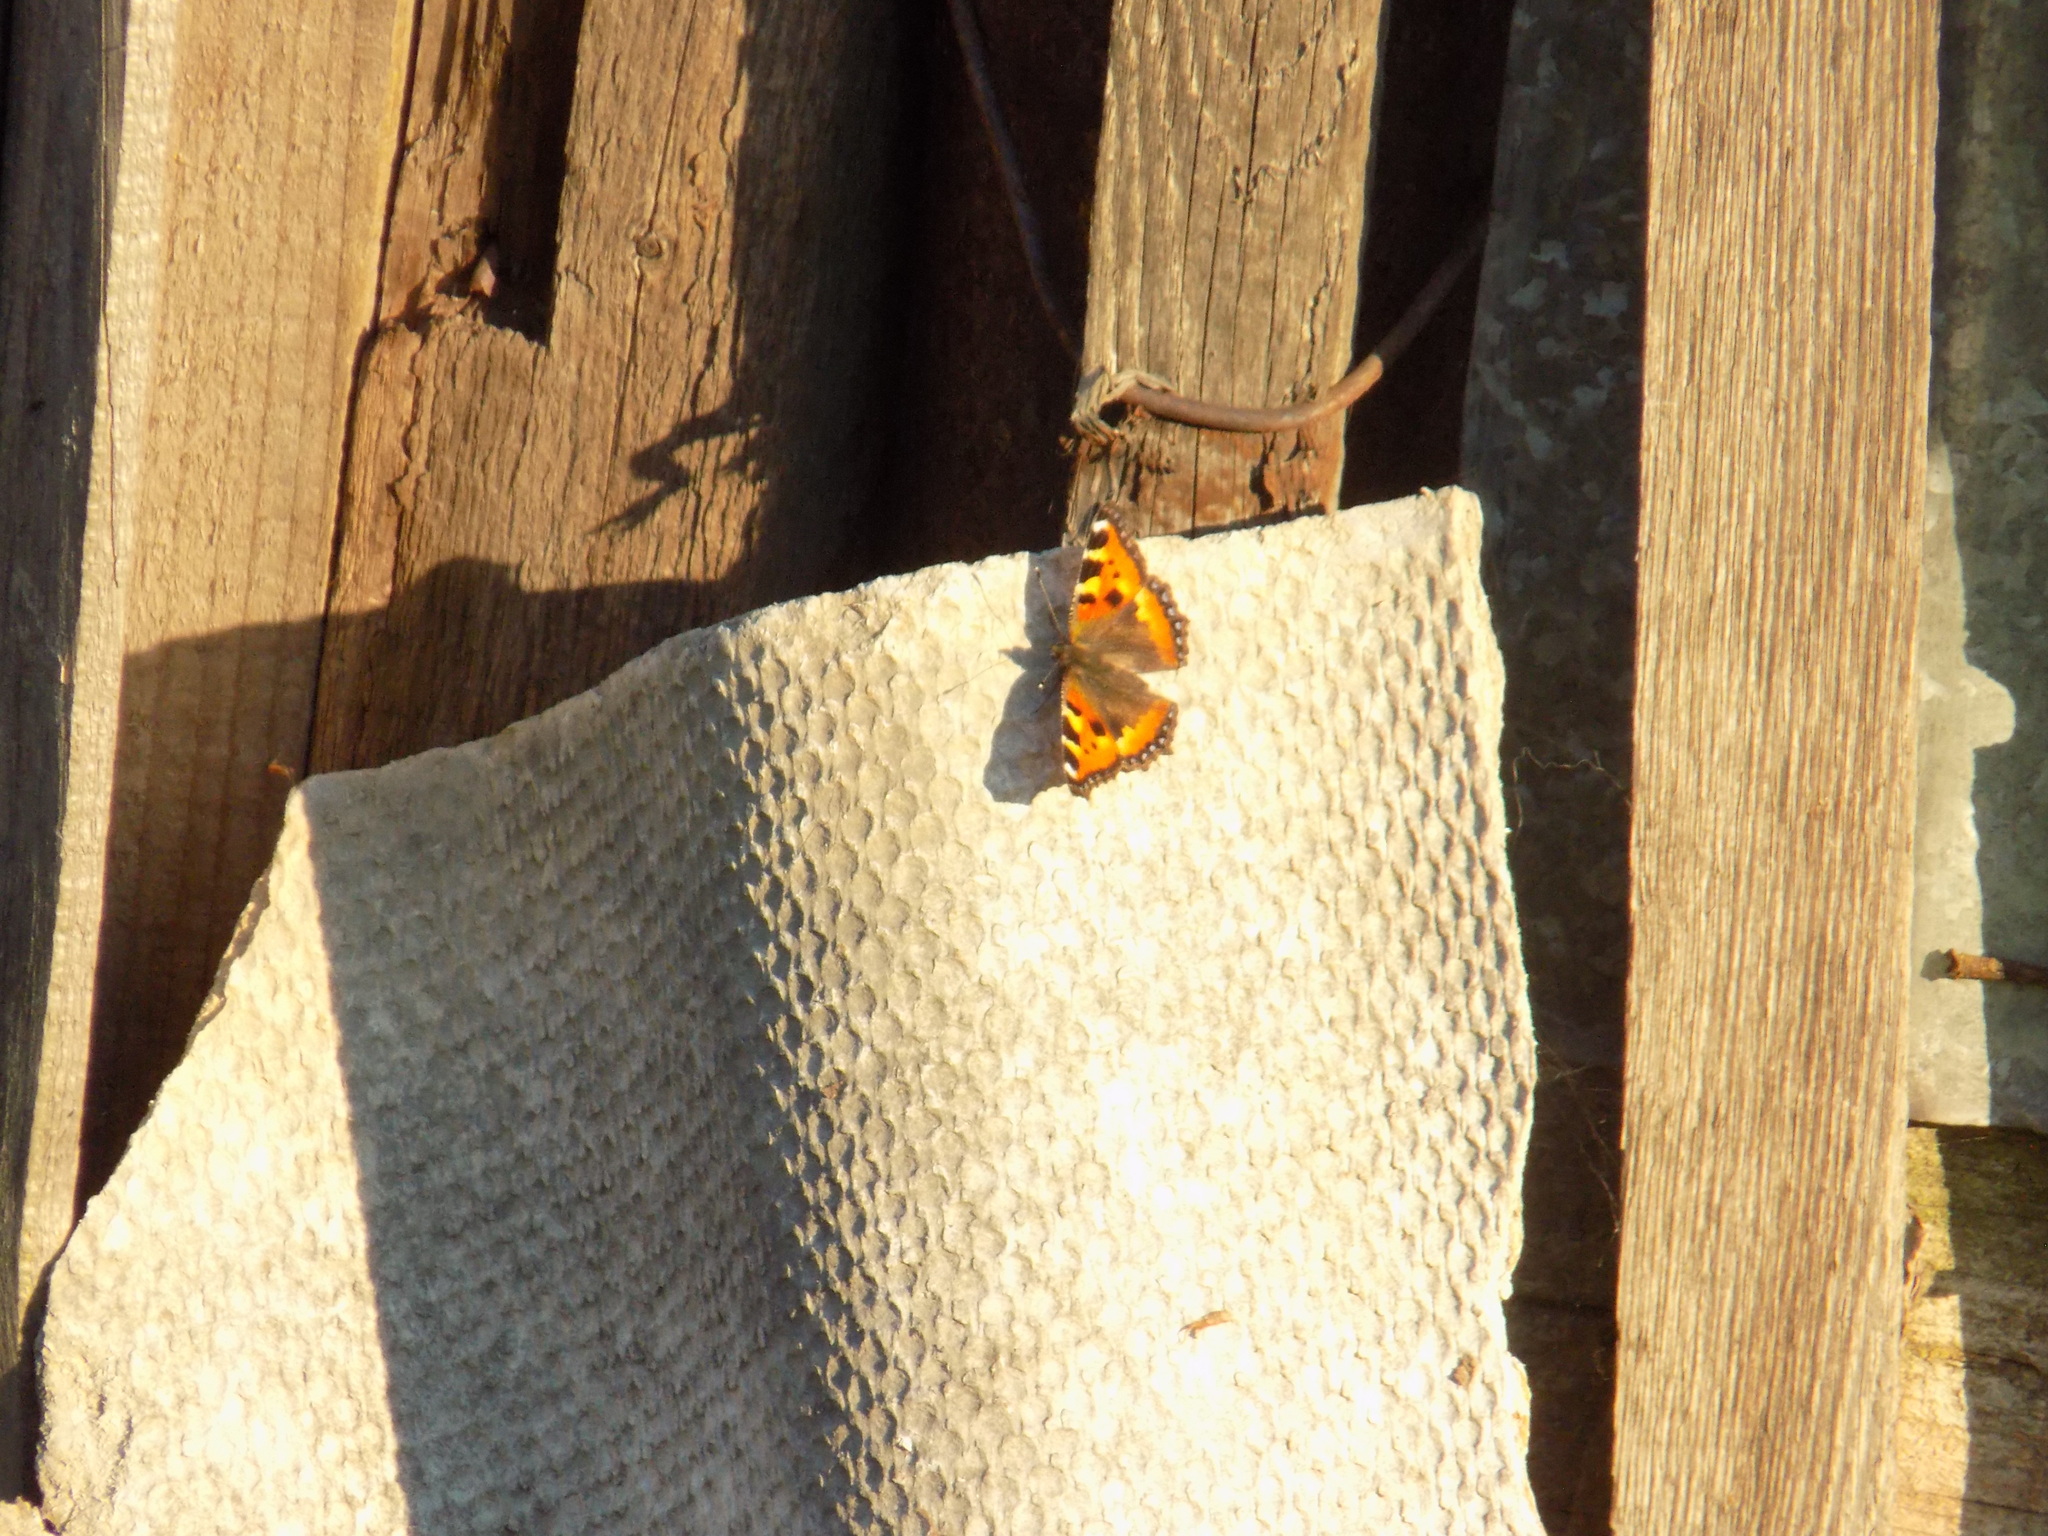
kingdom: Animalia
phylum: Arthropoda
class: Insecta
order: Lepidoptera
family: Nymphalidae
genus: Aglais
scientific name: Aglais urticae
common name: Small tortoiseshell
